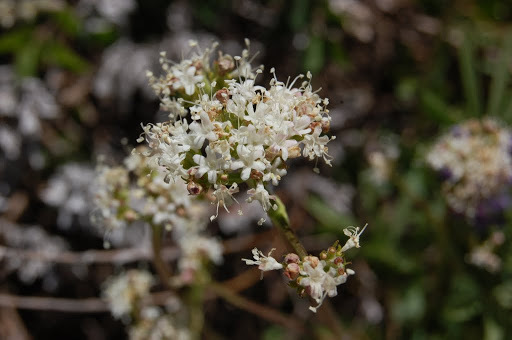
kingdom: Plantae
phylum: Tracheophyta
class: Magnoliopsida
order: Dipsacales
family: Caprifoliaceae
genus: Valeriana
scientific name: Valeriana californica
